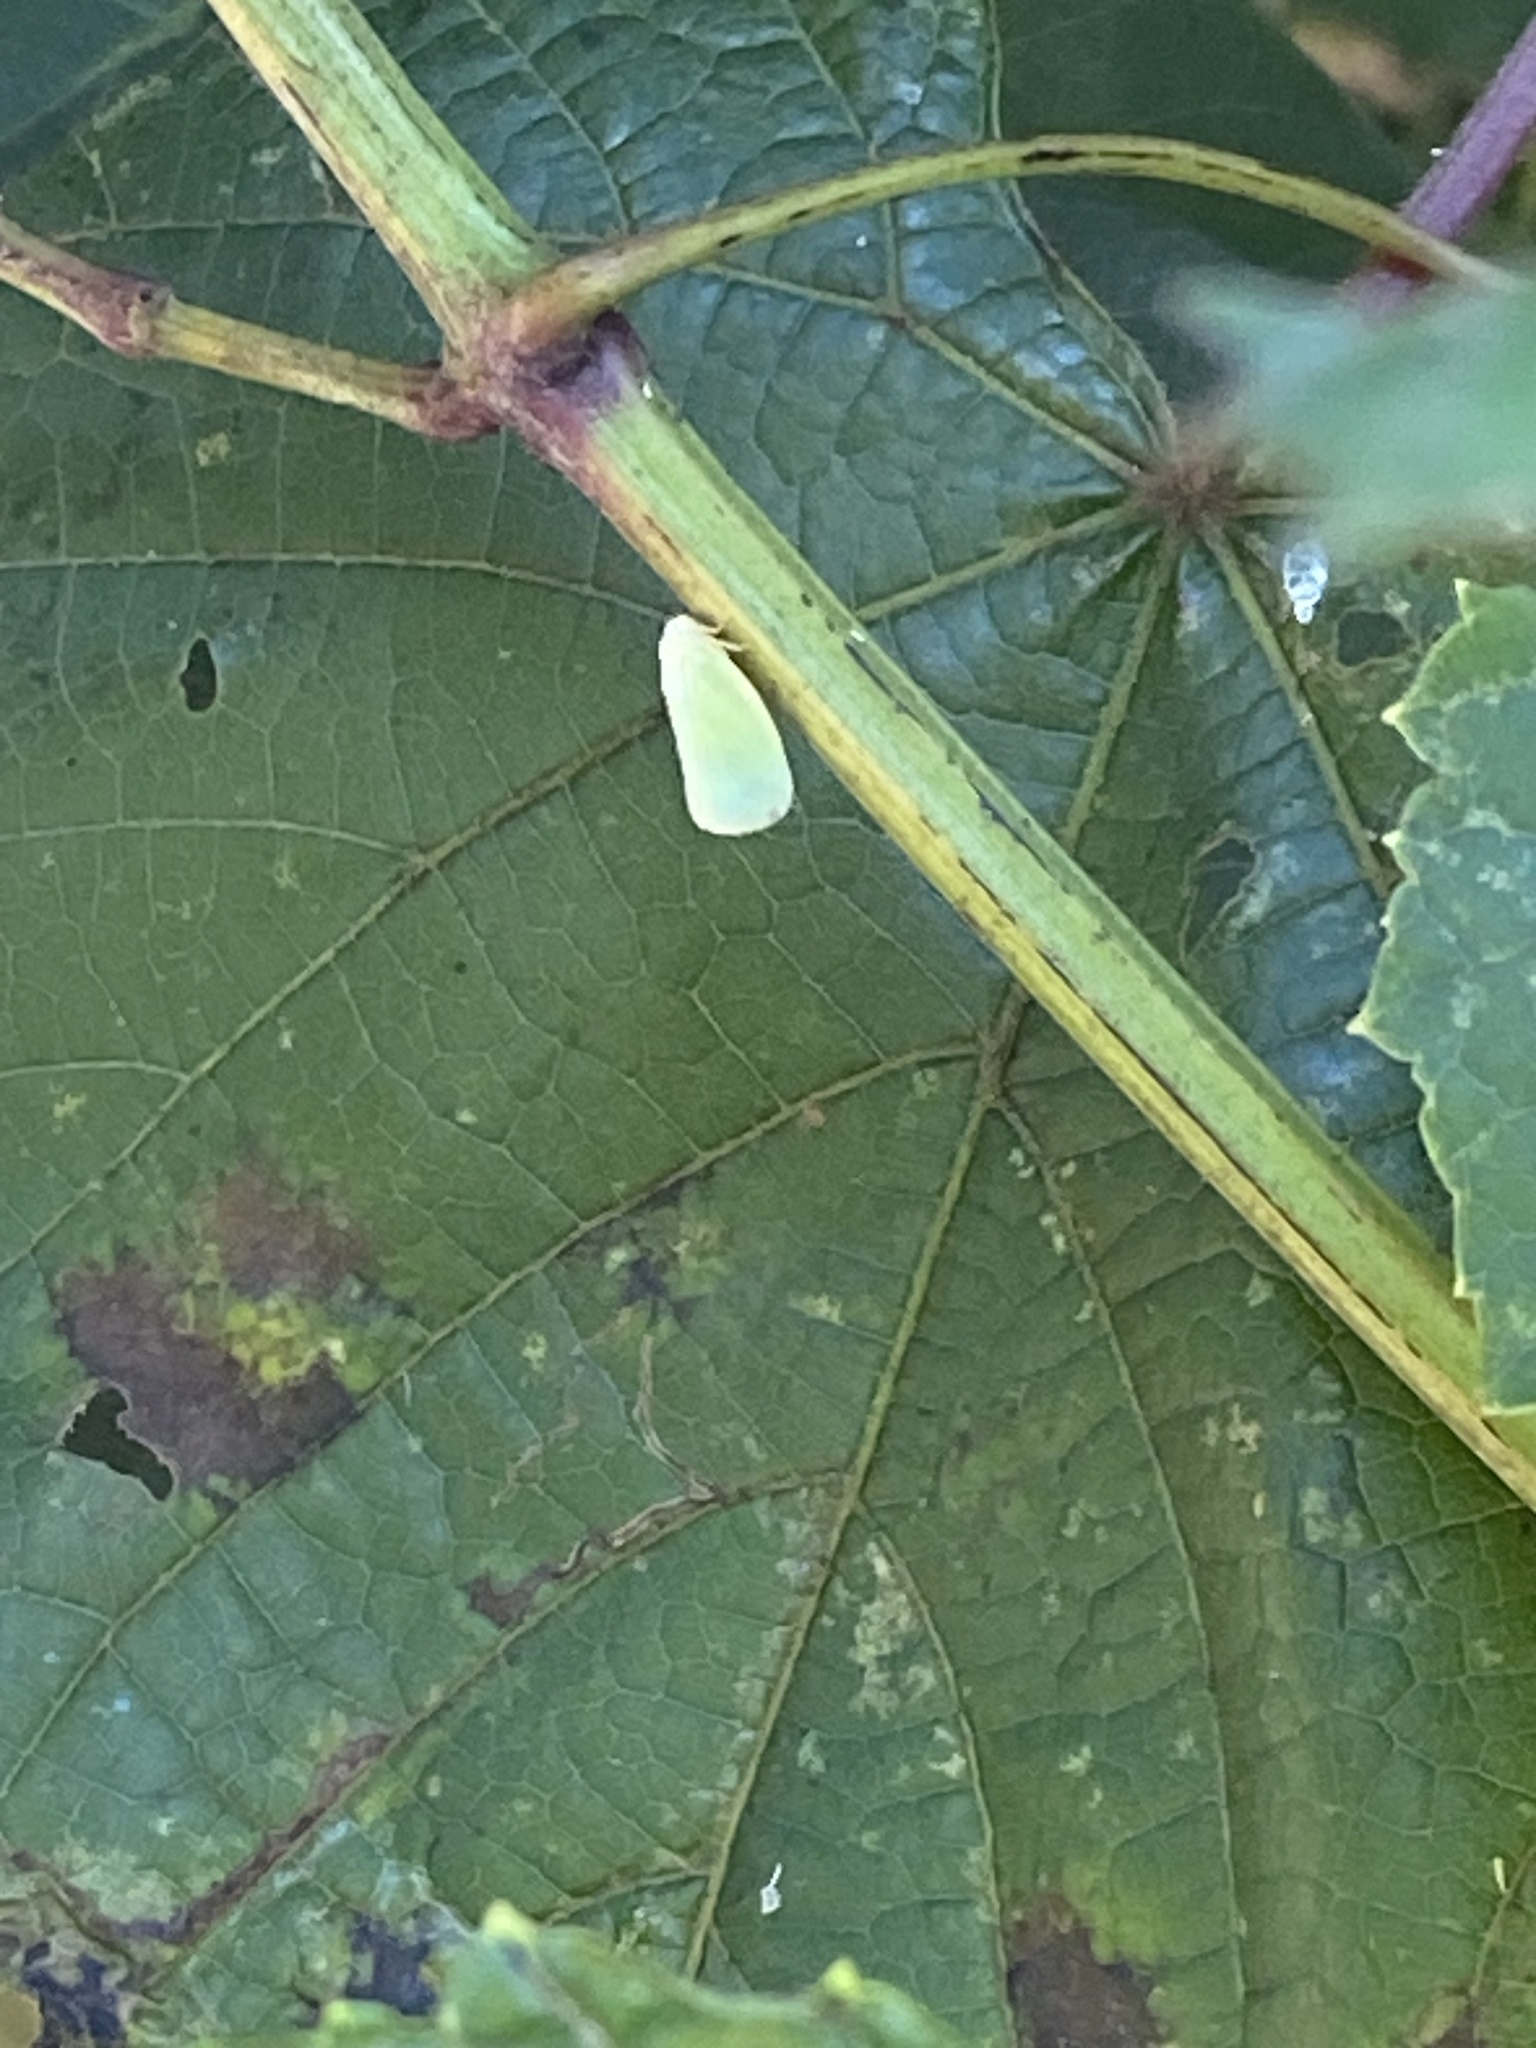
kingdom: Animalia
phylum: Arthropoda
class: Insecta
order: Hemiptera
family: Flatidae
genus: Ormenoides
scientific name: Ormenoides venusta
